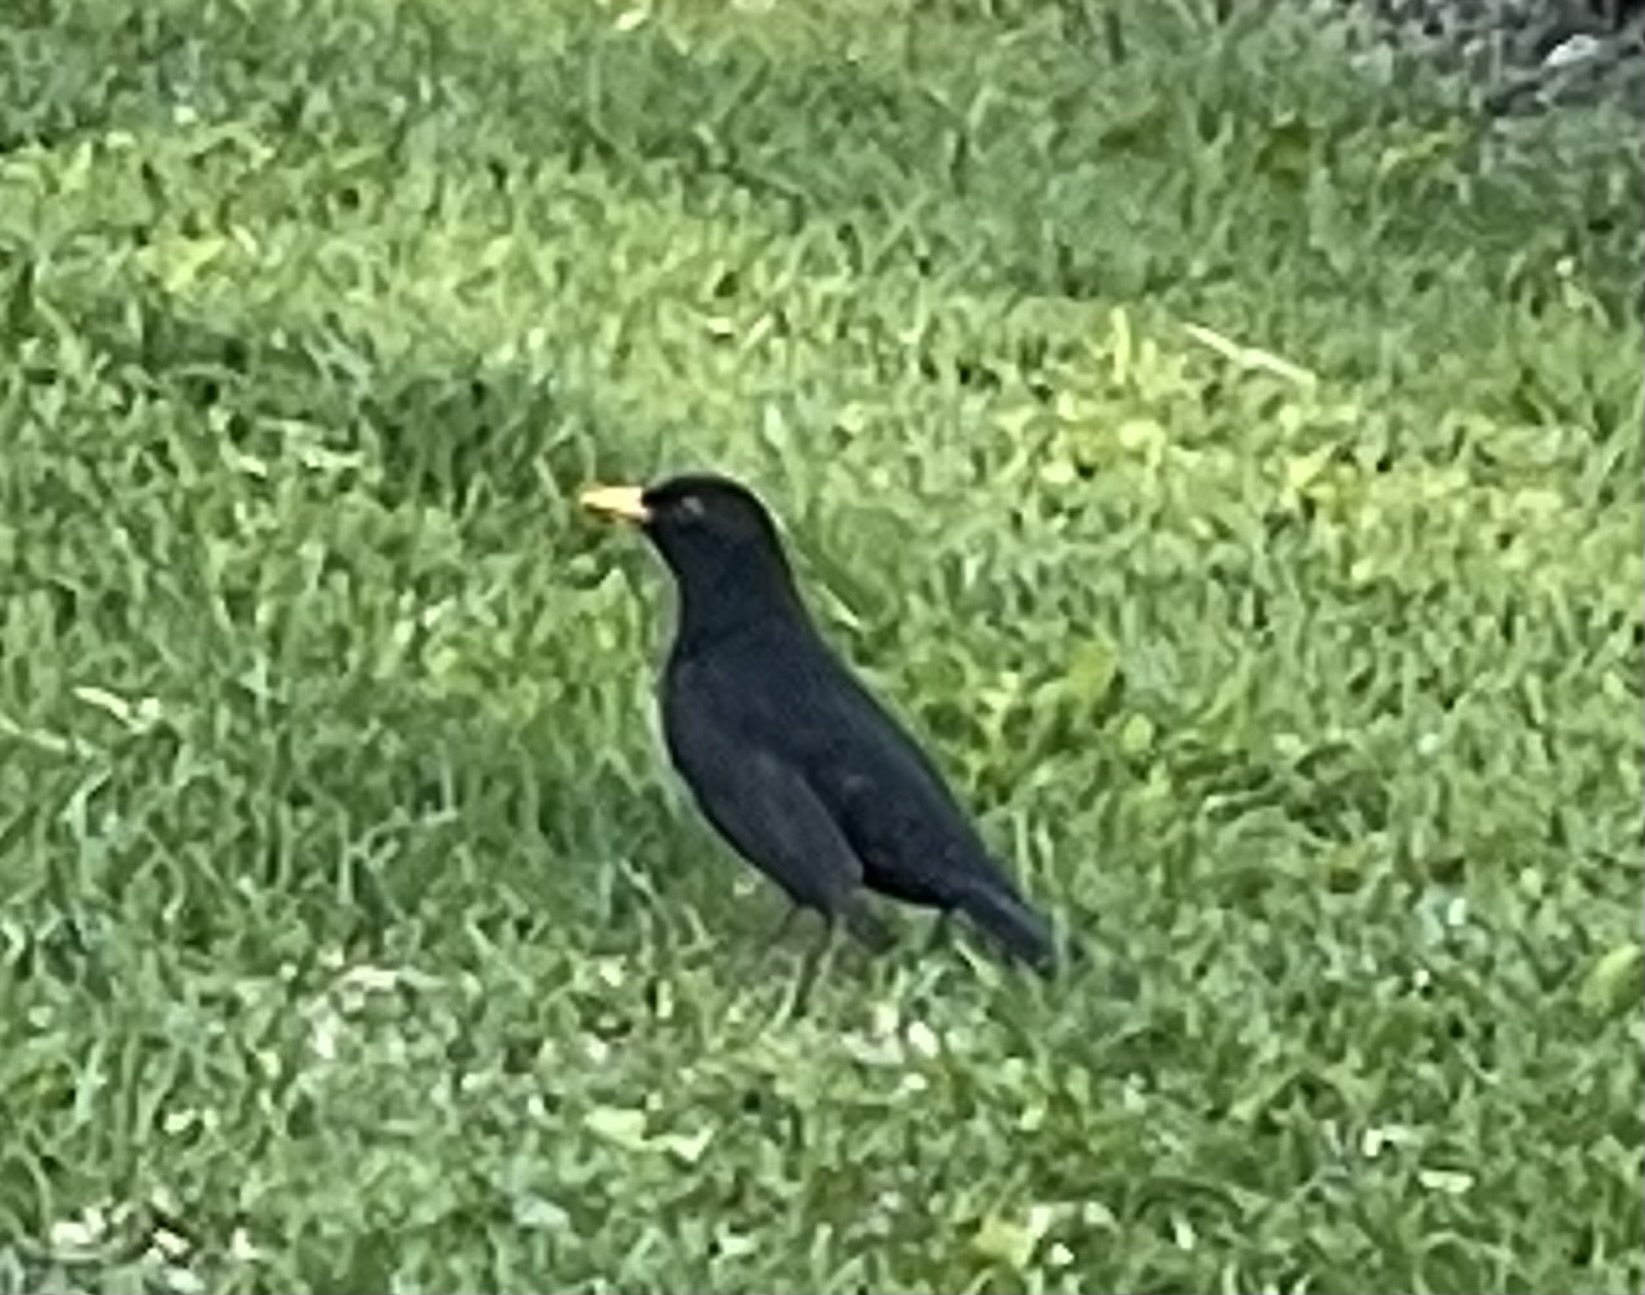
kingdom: Animalia
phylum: Chordata
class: Aves
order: Passeriformes
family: Turdidae
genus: Turdus
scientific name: Turdus merula
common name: Common blackbird
